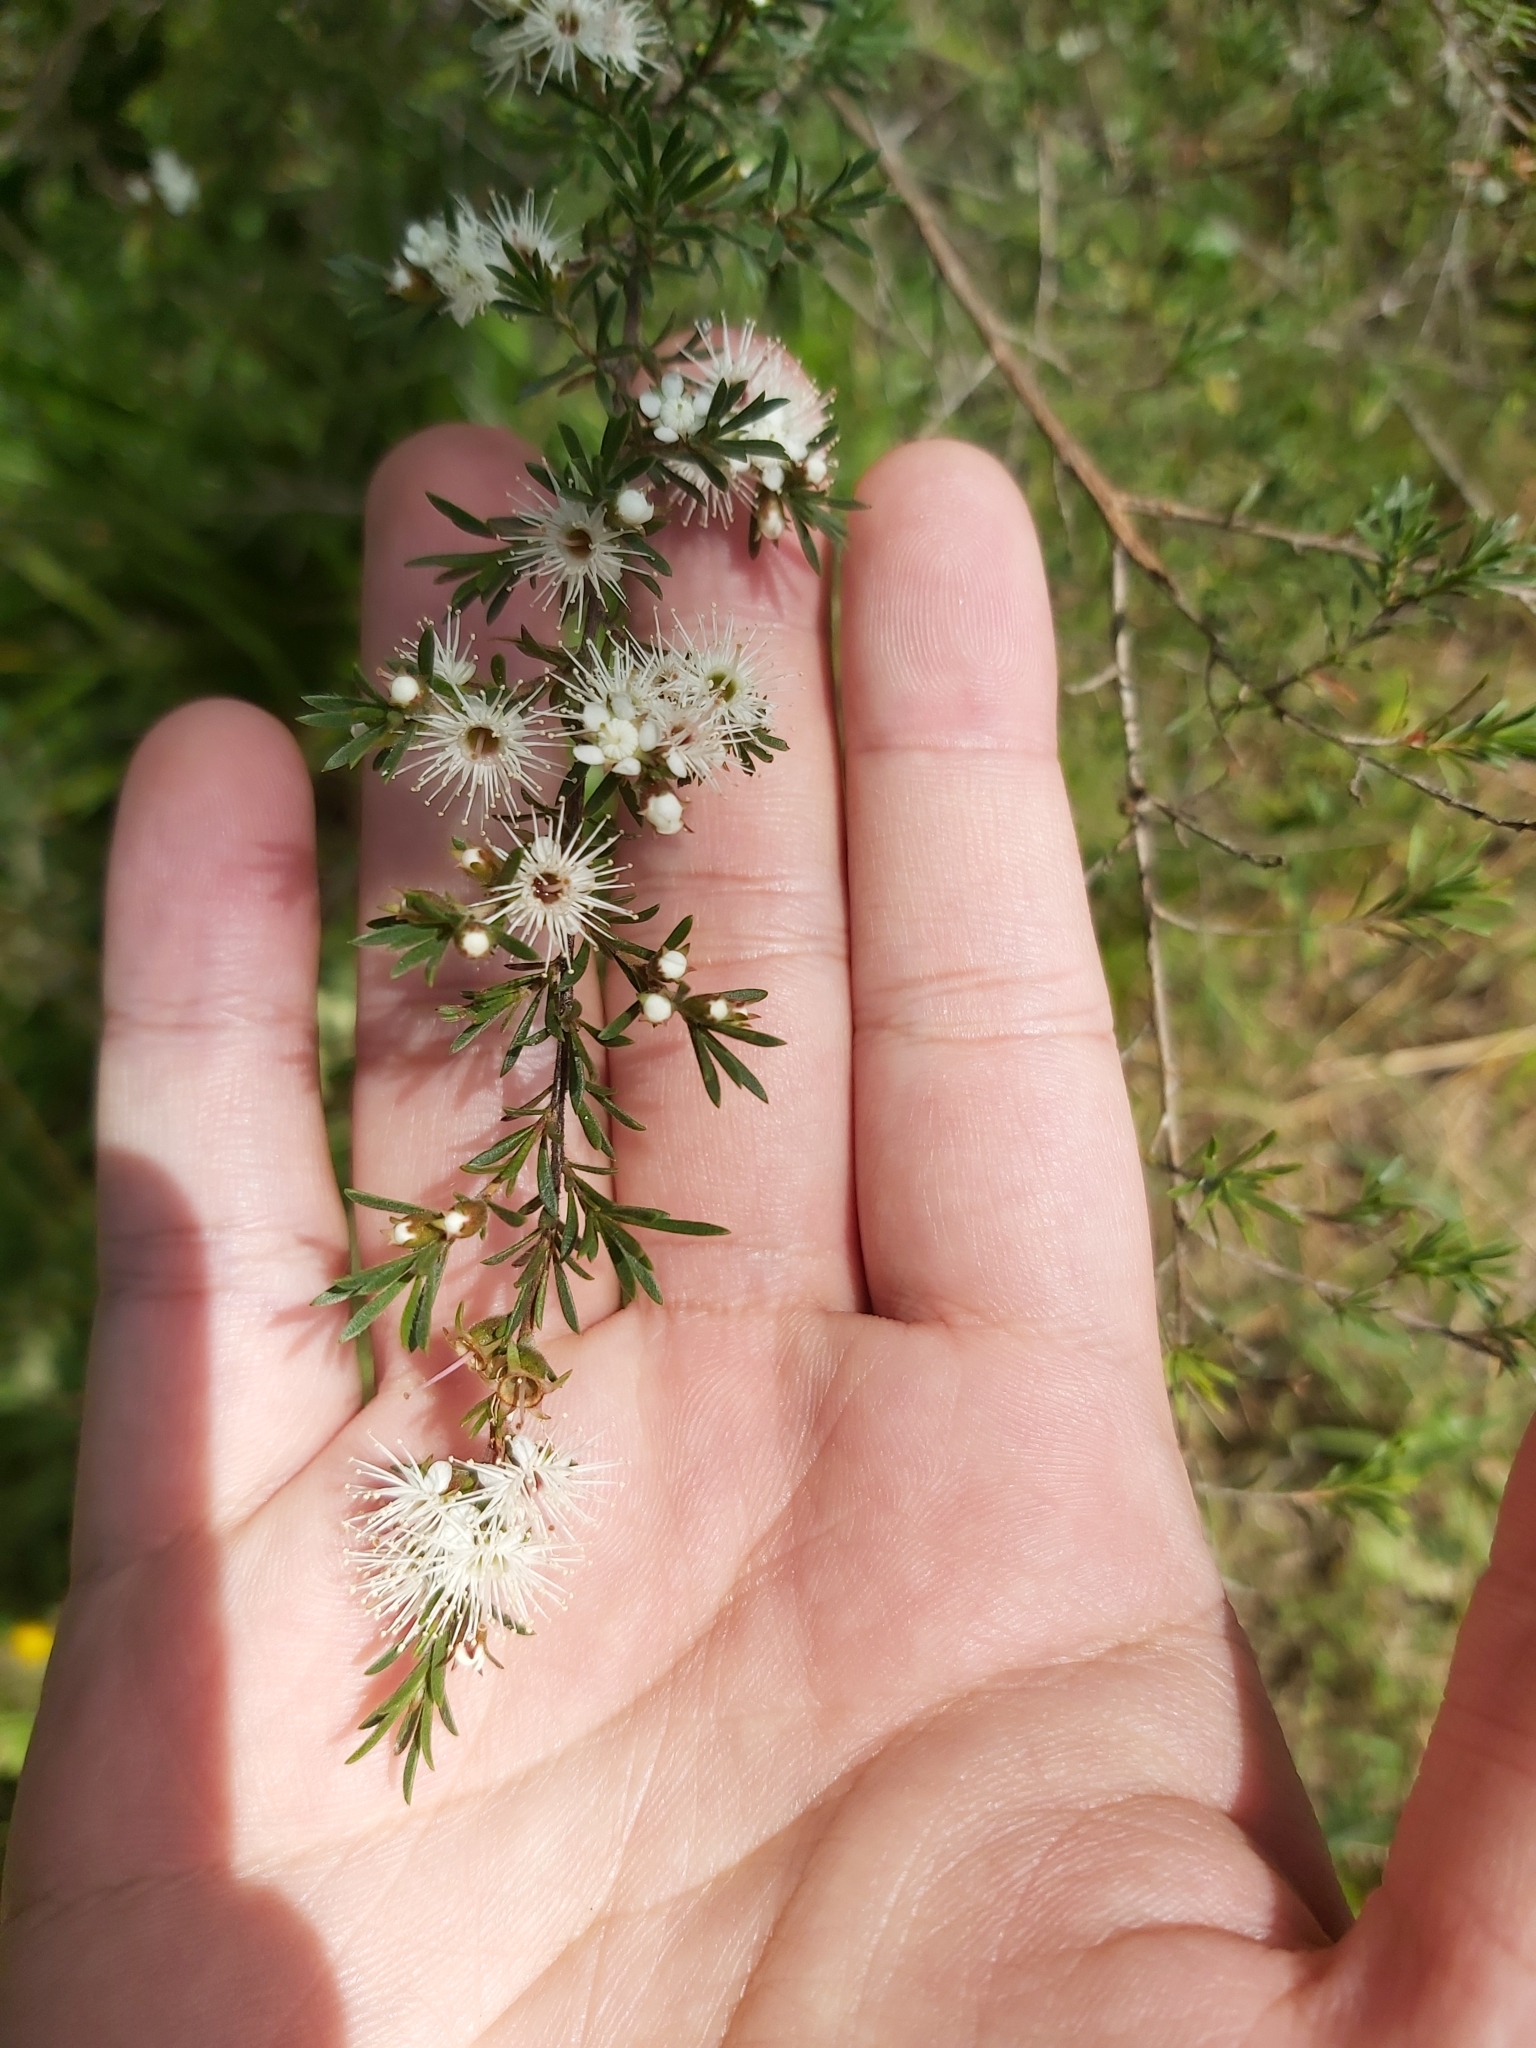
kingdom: Plantae
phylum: Tracheophyta
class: Magnoliopsida
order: Myrtales
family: Myrtaceae
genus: Kunzea
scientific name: Kunzea ambigua
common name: Tickbush
